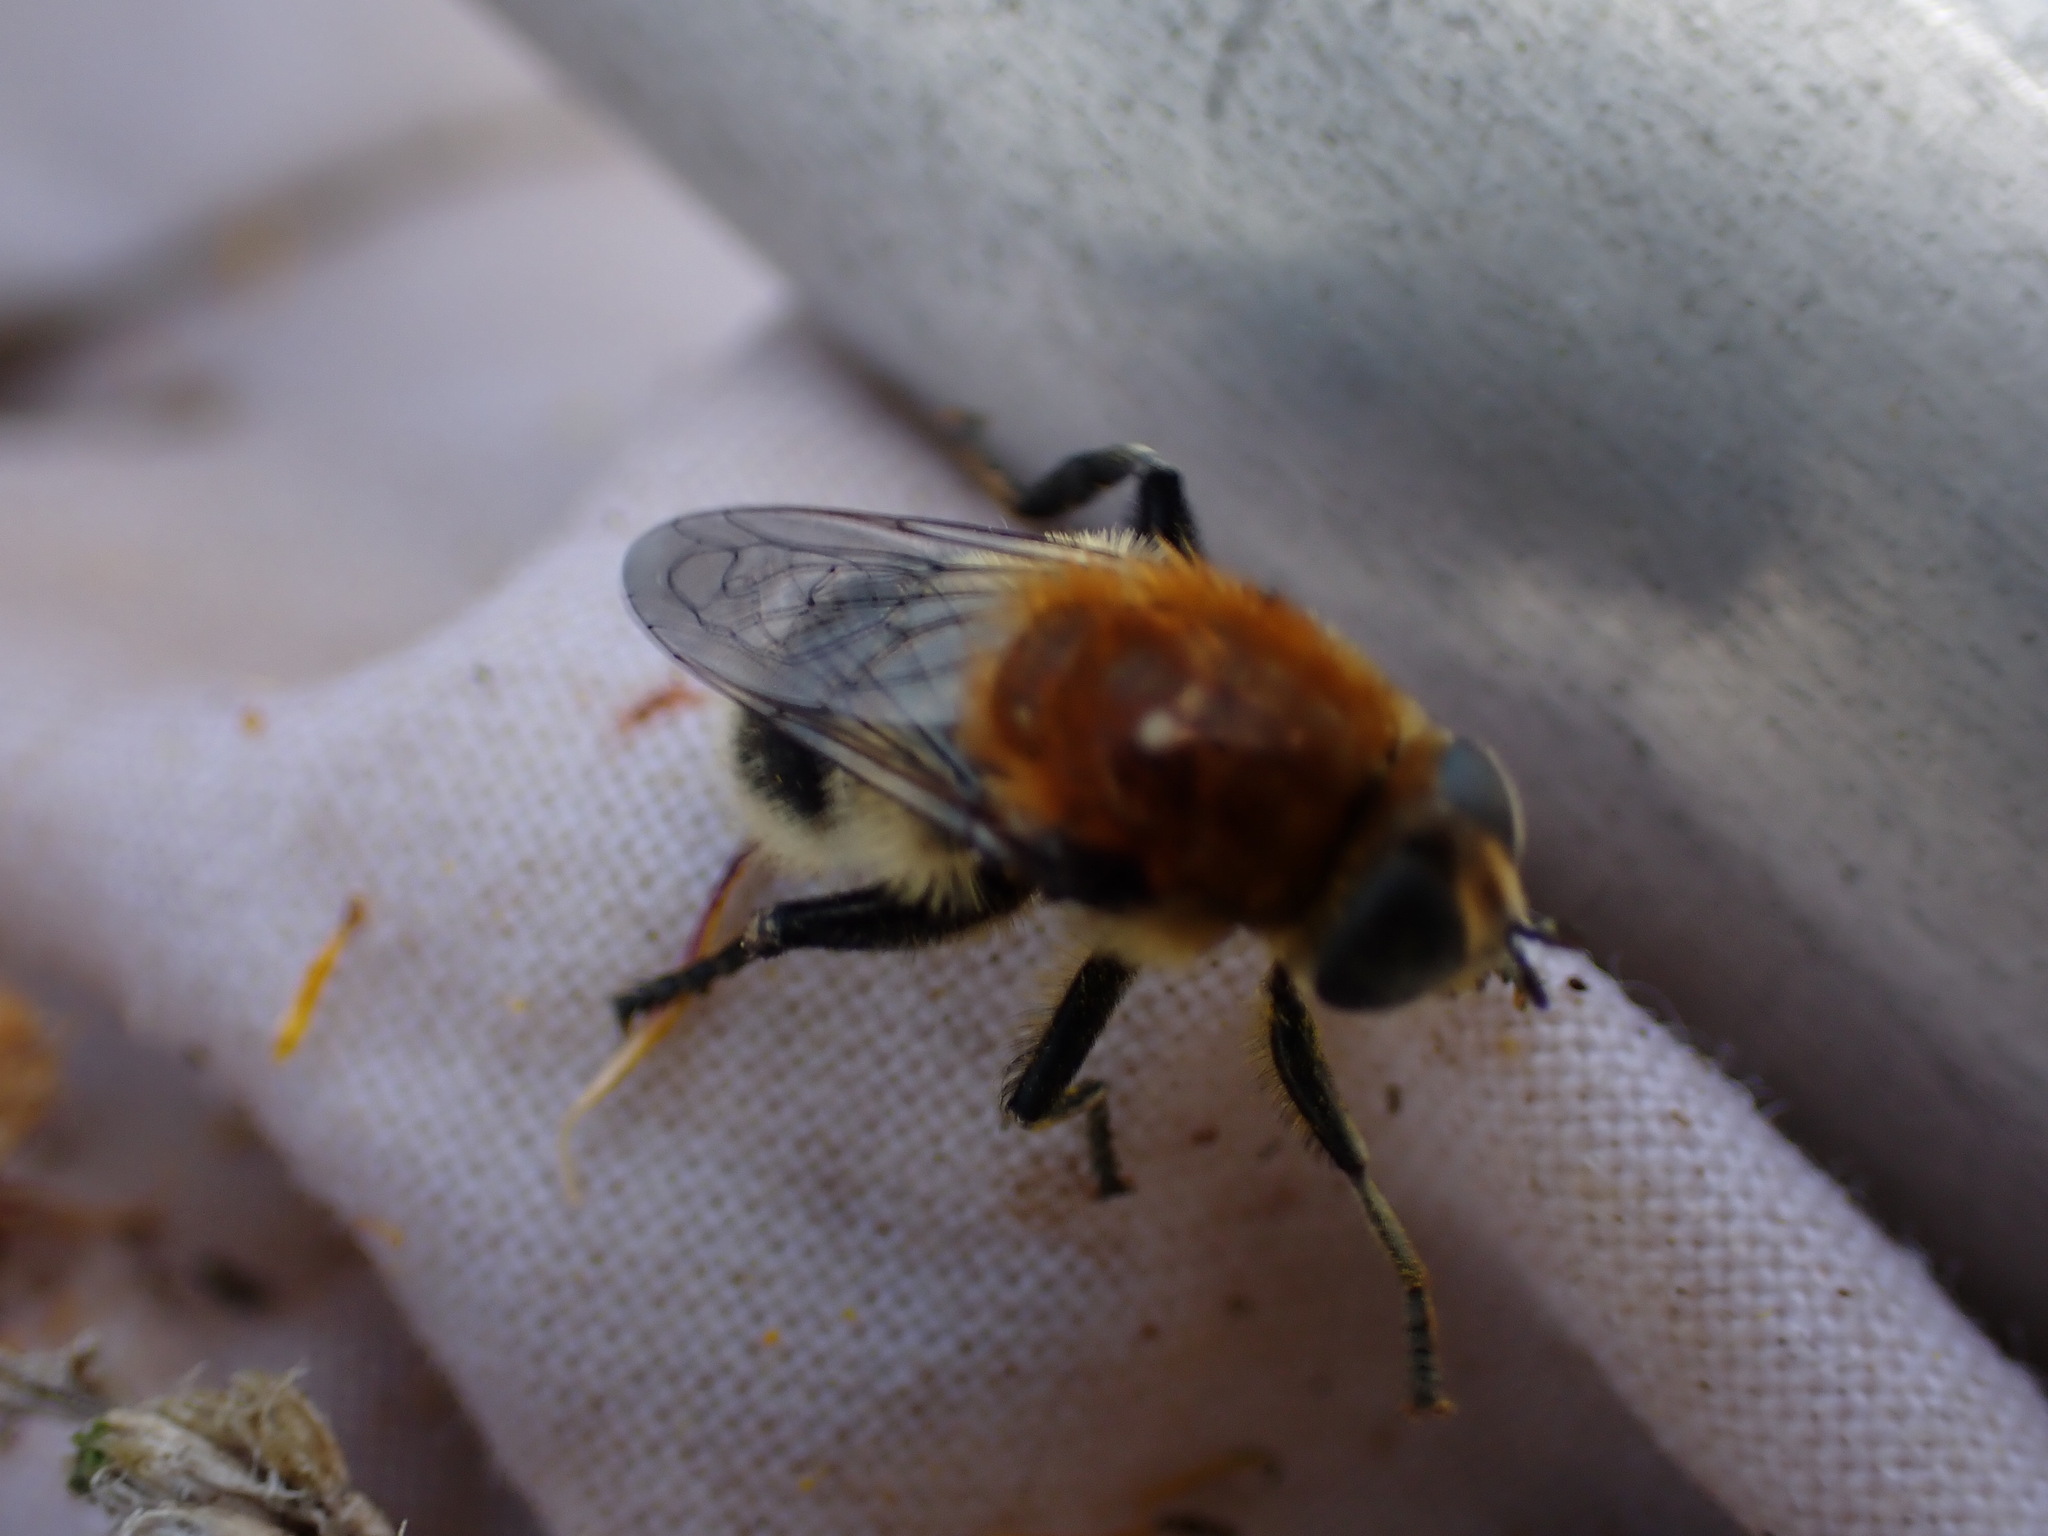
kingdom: Animalia
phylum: Arthropoda
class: Insecta
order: Diptera
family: Syrphidae
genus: Merodon
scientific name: Merodon equestris
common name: Greater bulb-fly
